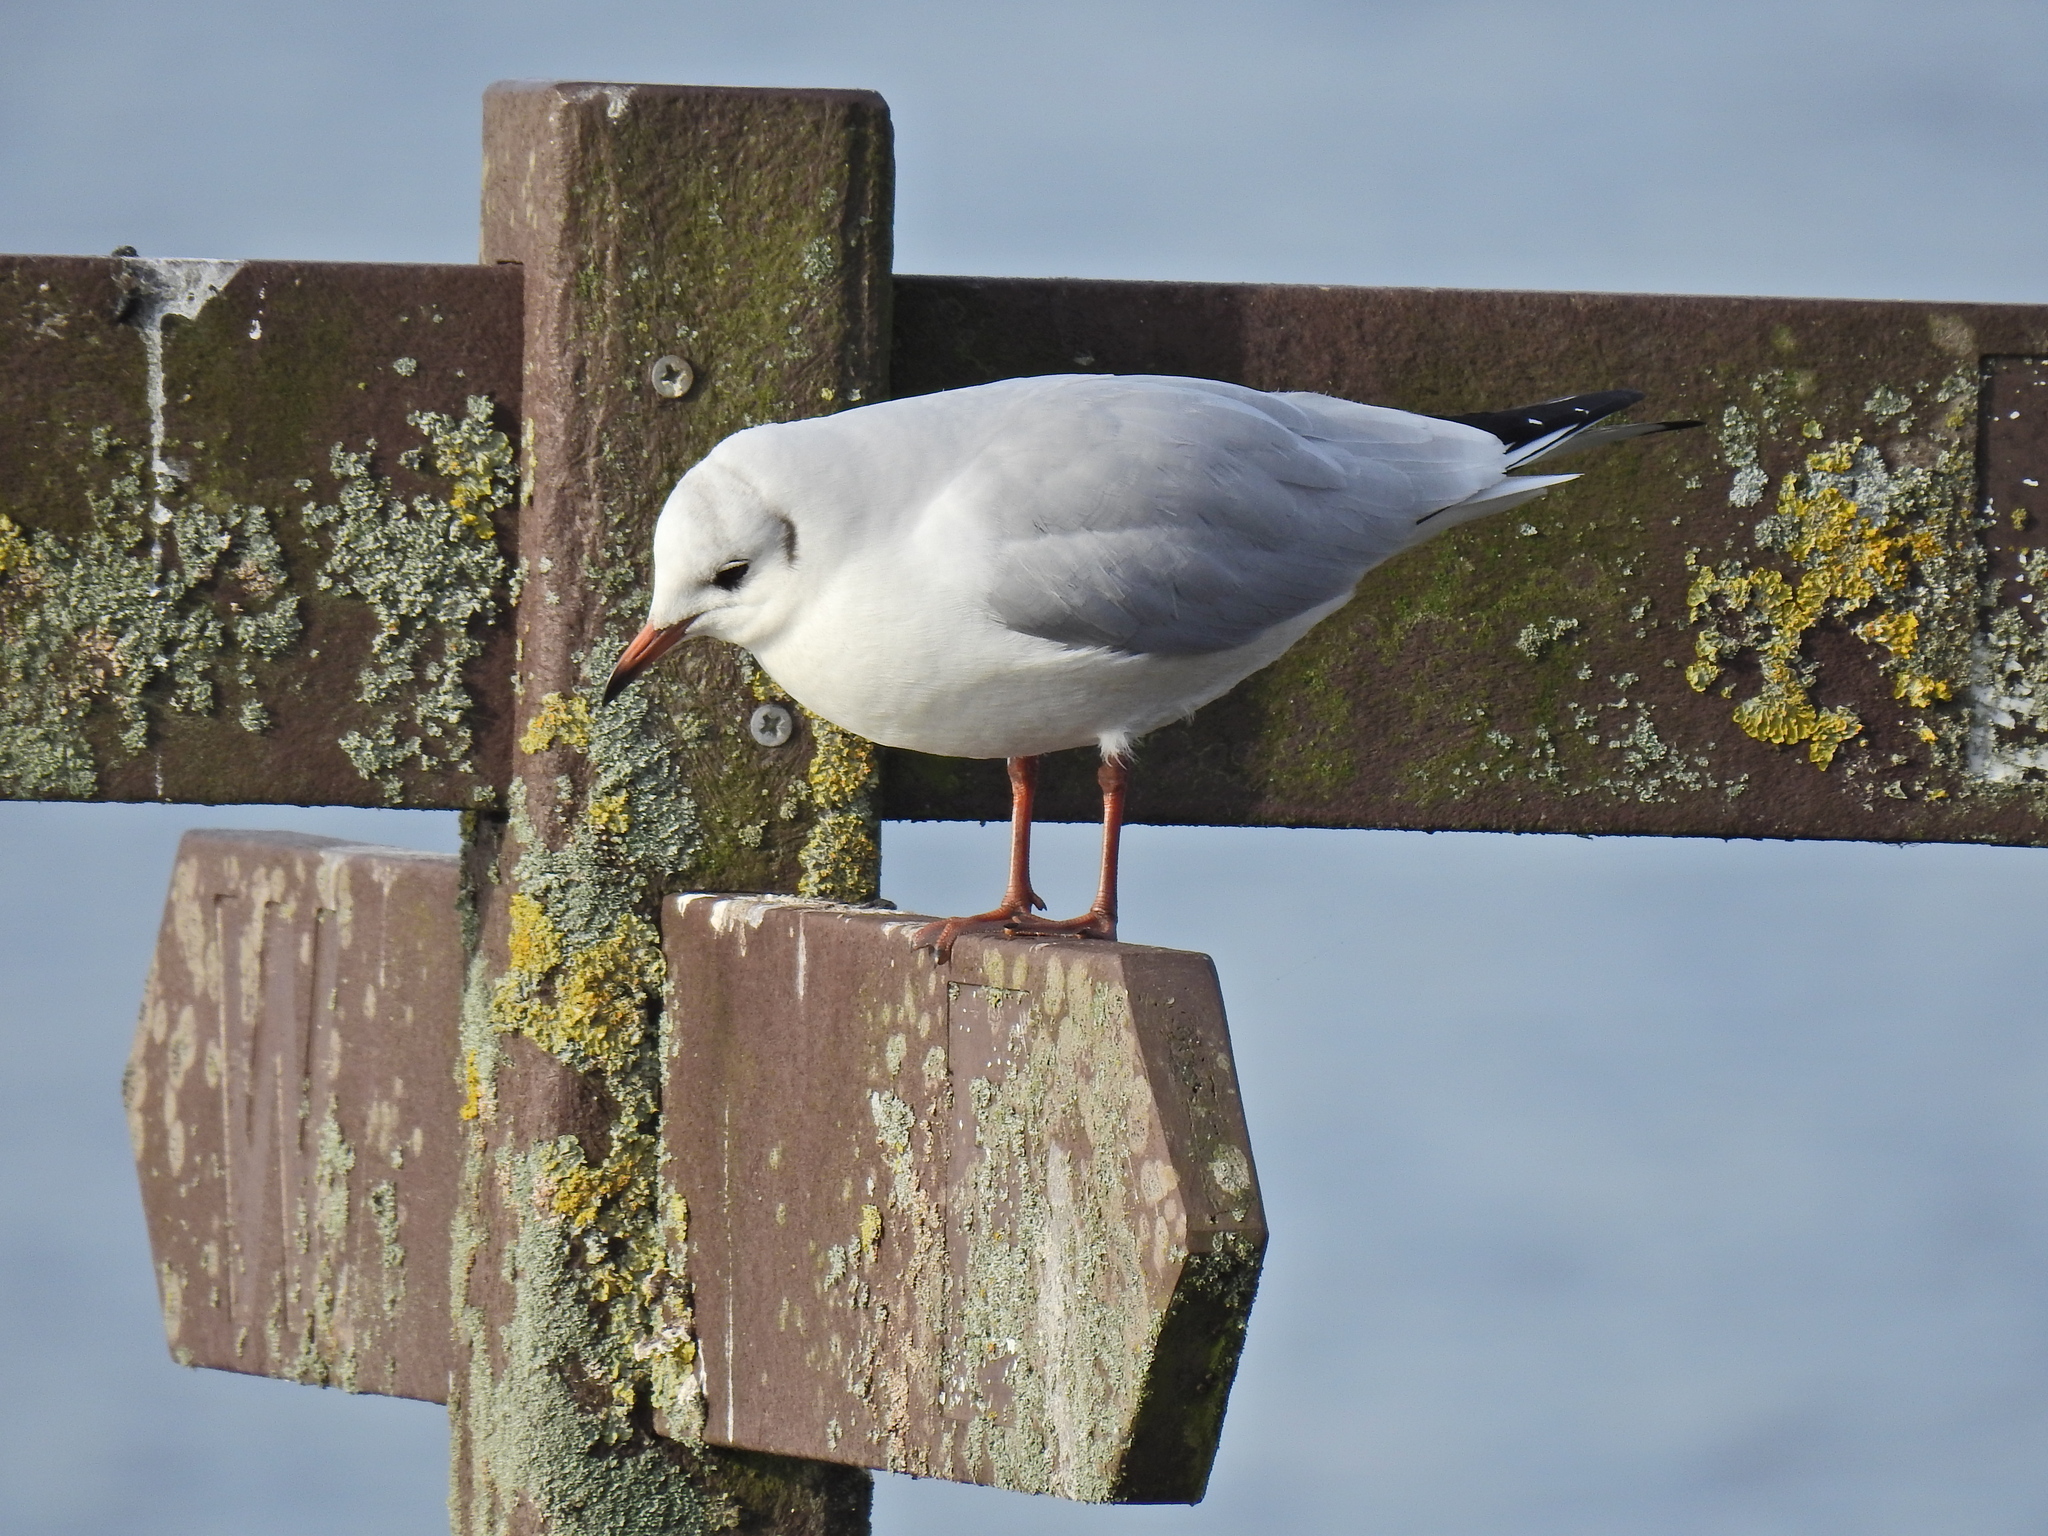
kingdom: Animalia
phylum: Chordata
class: Aves
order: Charadriiformes
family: Laridae
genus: Chroicocephalus
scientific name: Chroicocephalus ridibundus
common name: Black-headed gull
